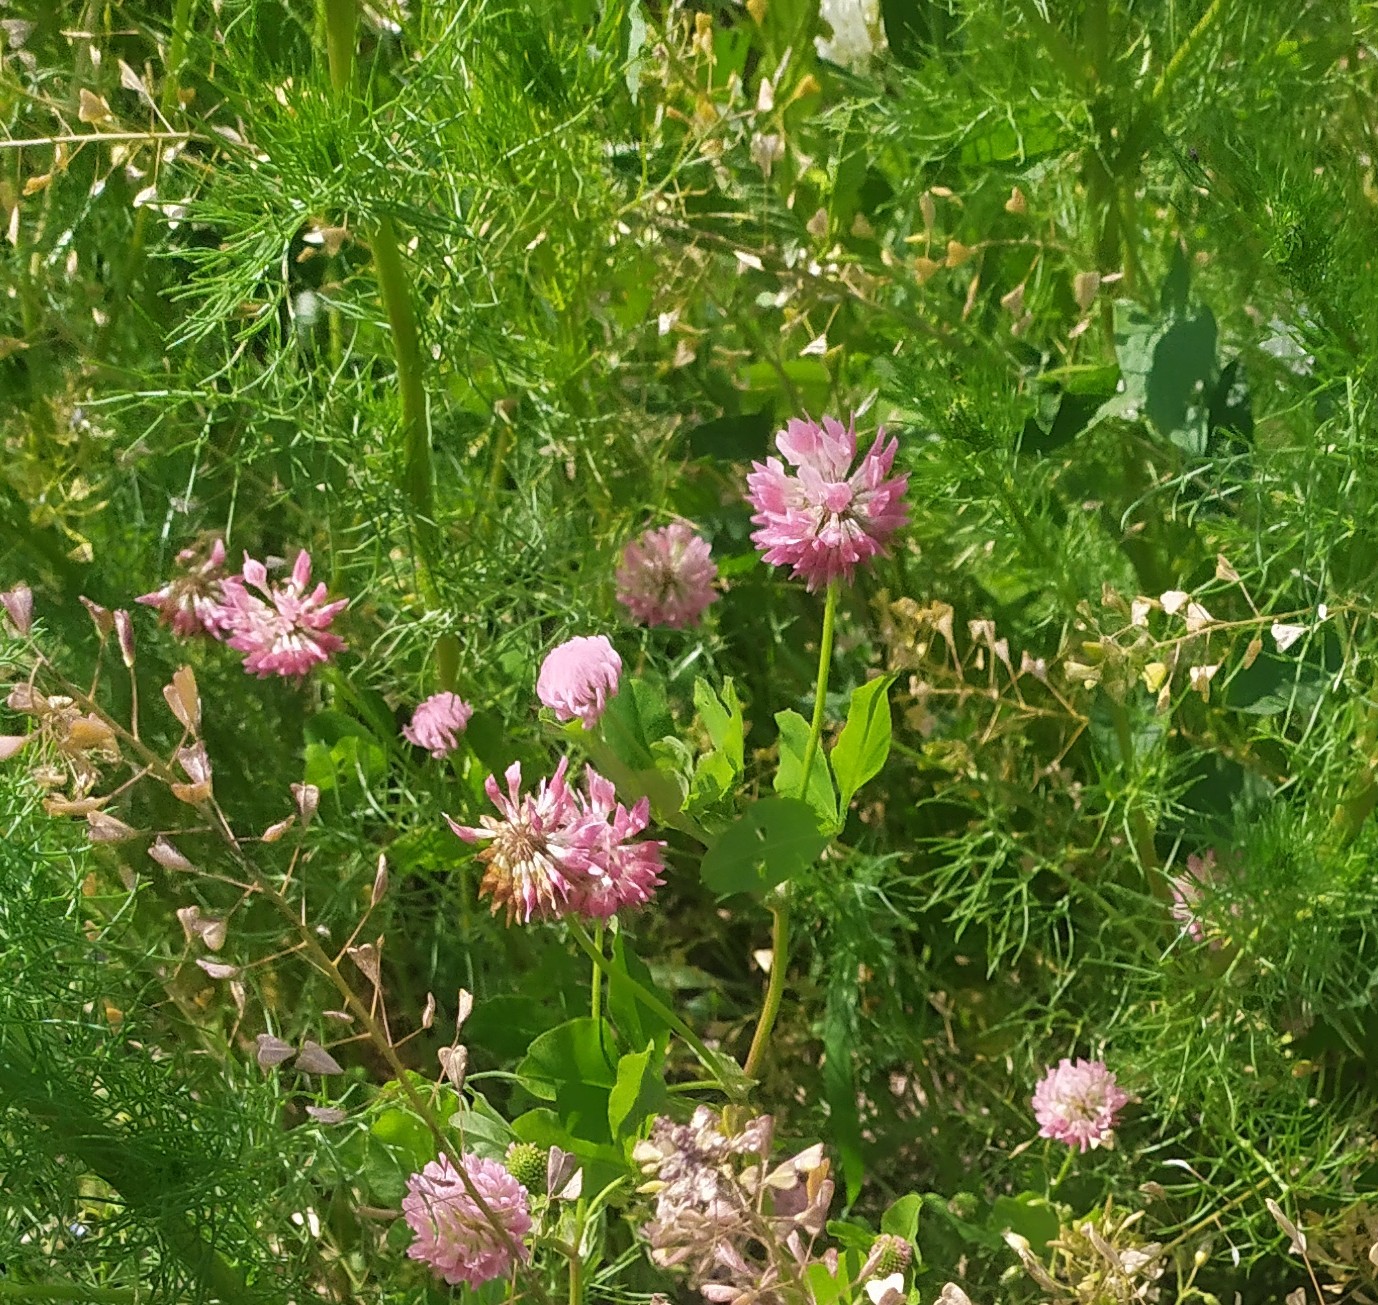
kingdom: Plantae
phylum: Tracheophyta
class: Magnoliopsida
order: Fabales
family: Fabaceae
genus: Trifolium
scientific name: Trifolium hybridum
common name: Alsike clover
